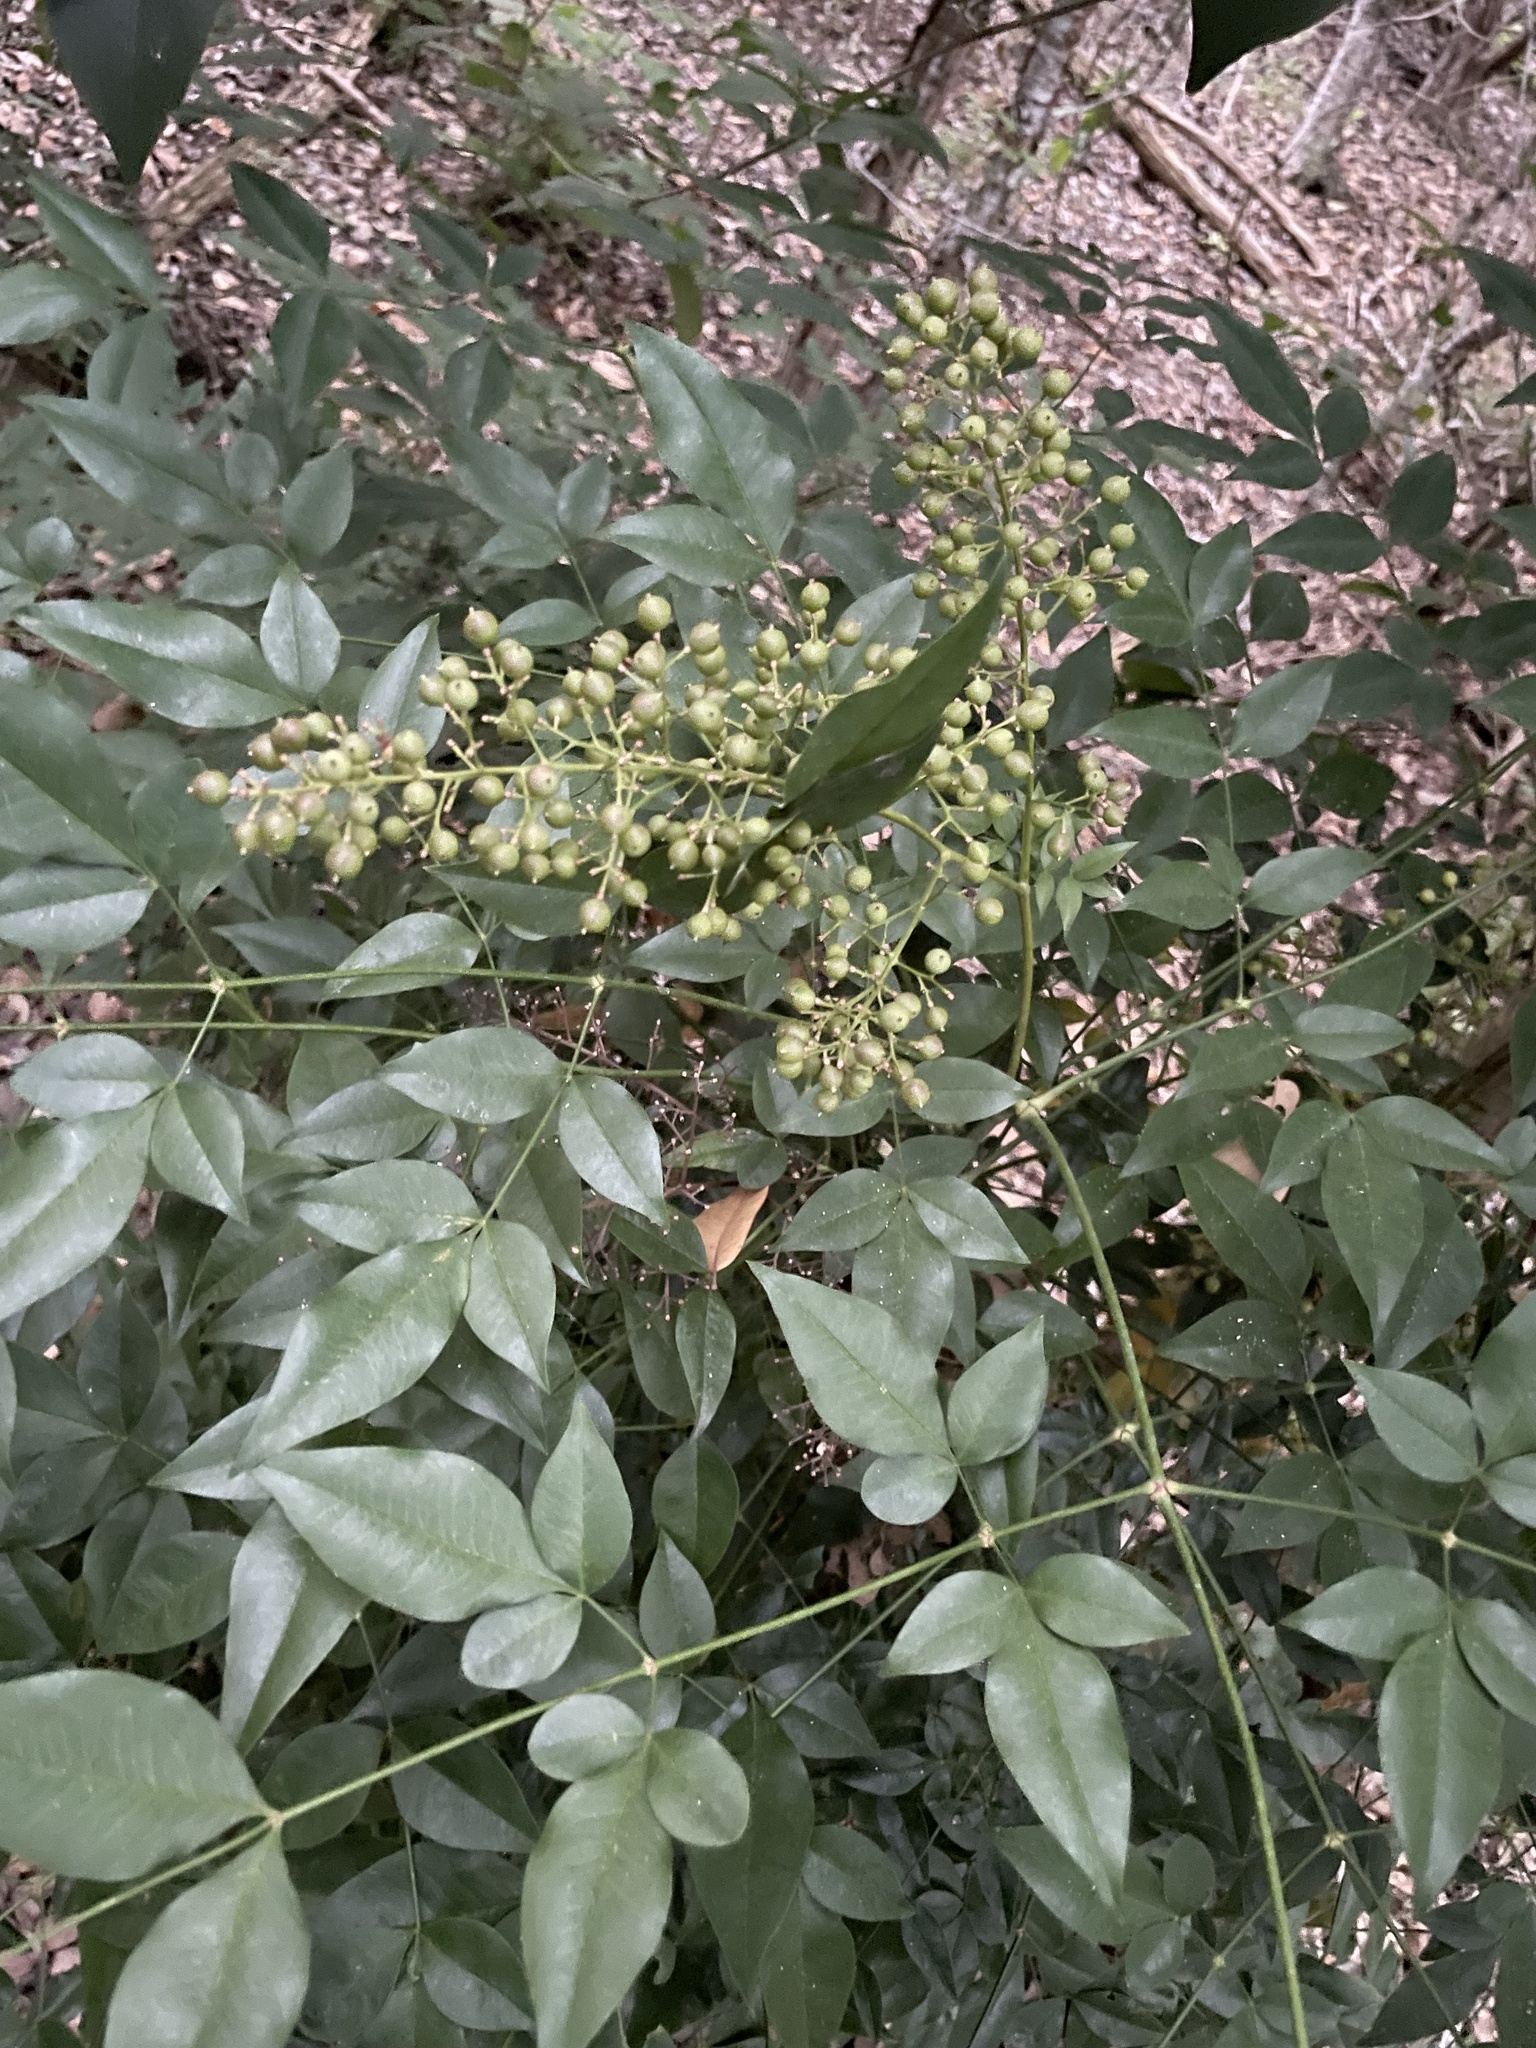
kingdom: Plantae
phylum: Tracheophyta
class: Magnoliopsida
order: Ranunculales
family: Berberidaceae
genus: Nandina
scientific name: Nandina domestica
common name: Sacred bamboo
